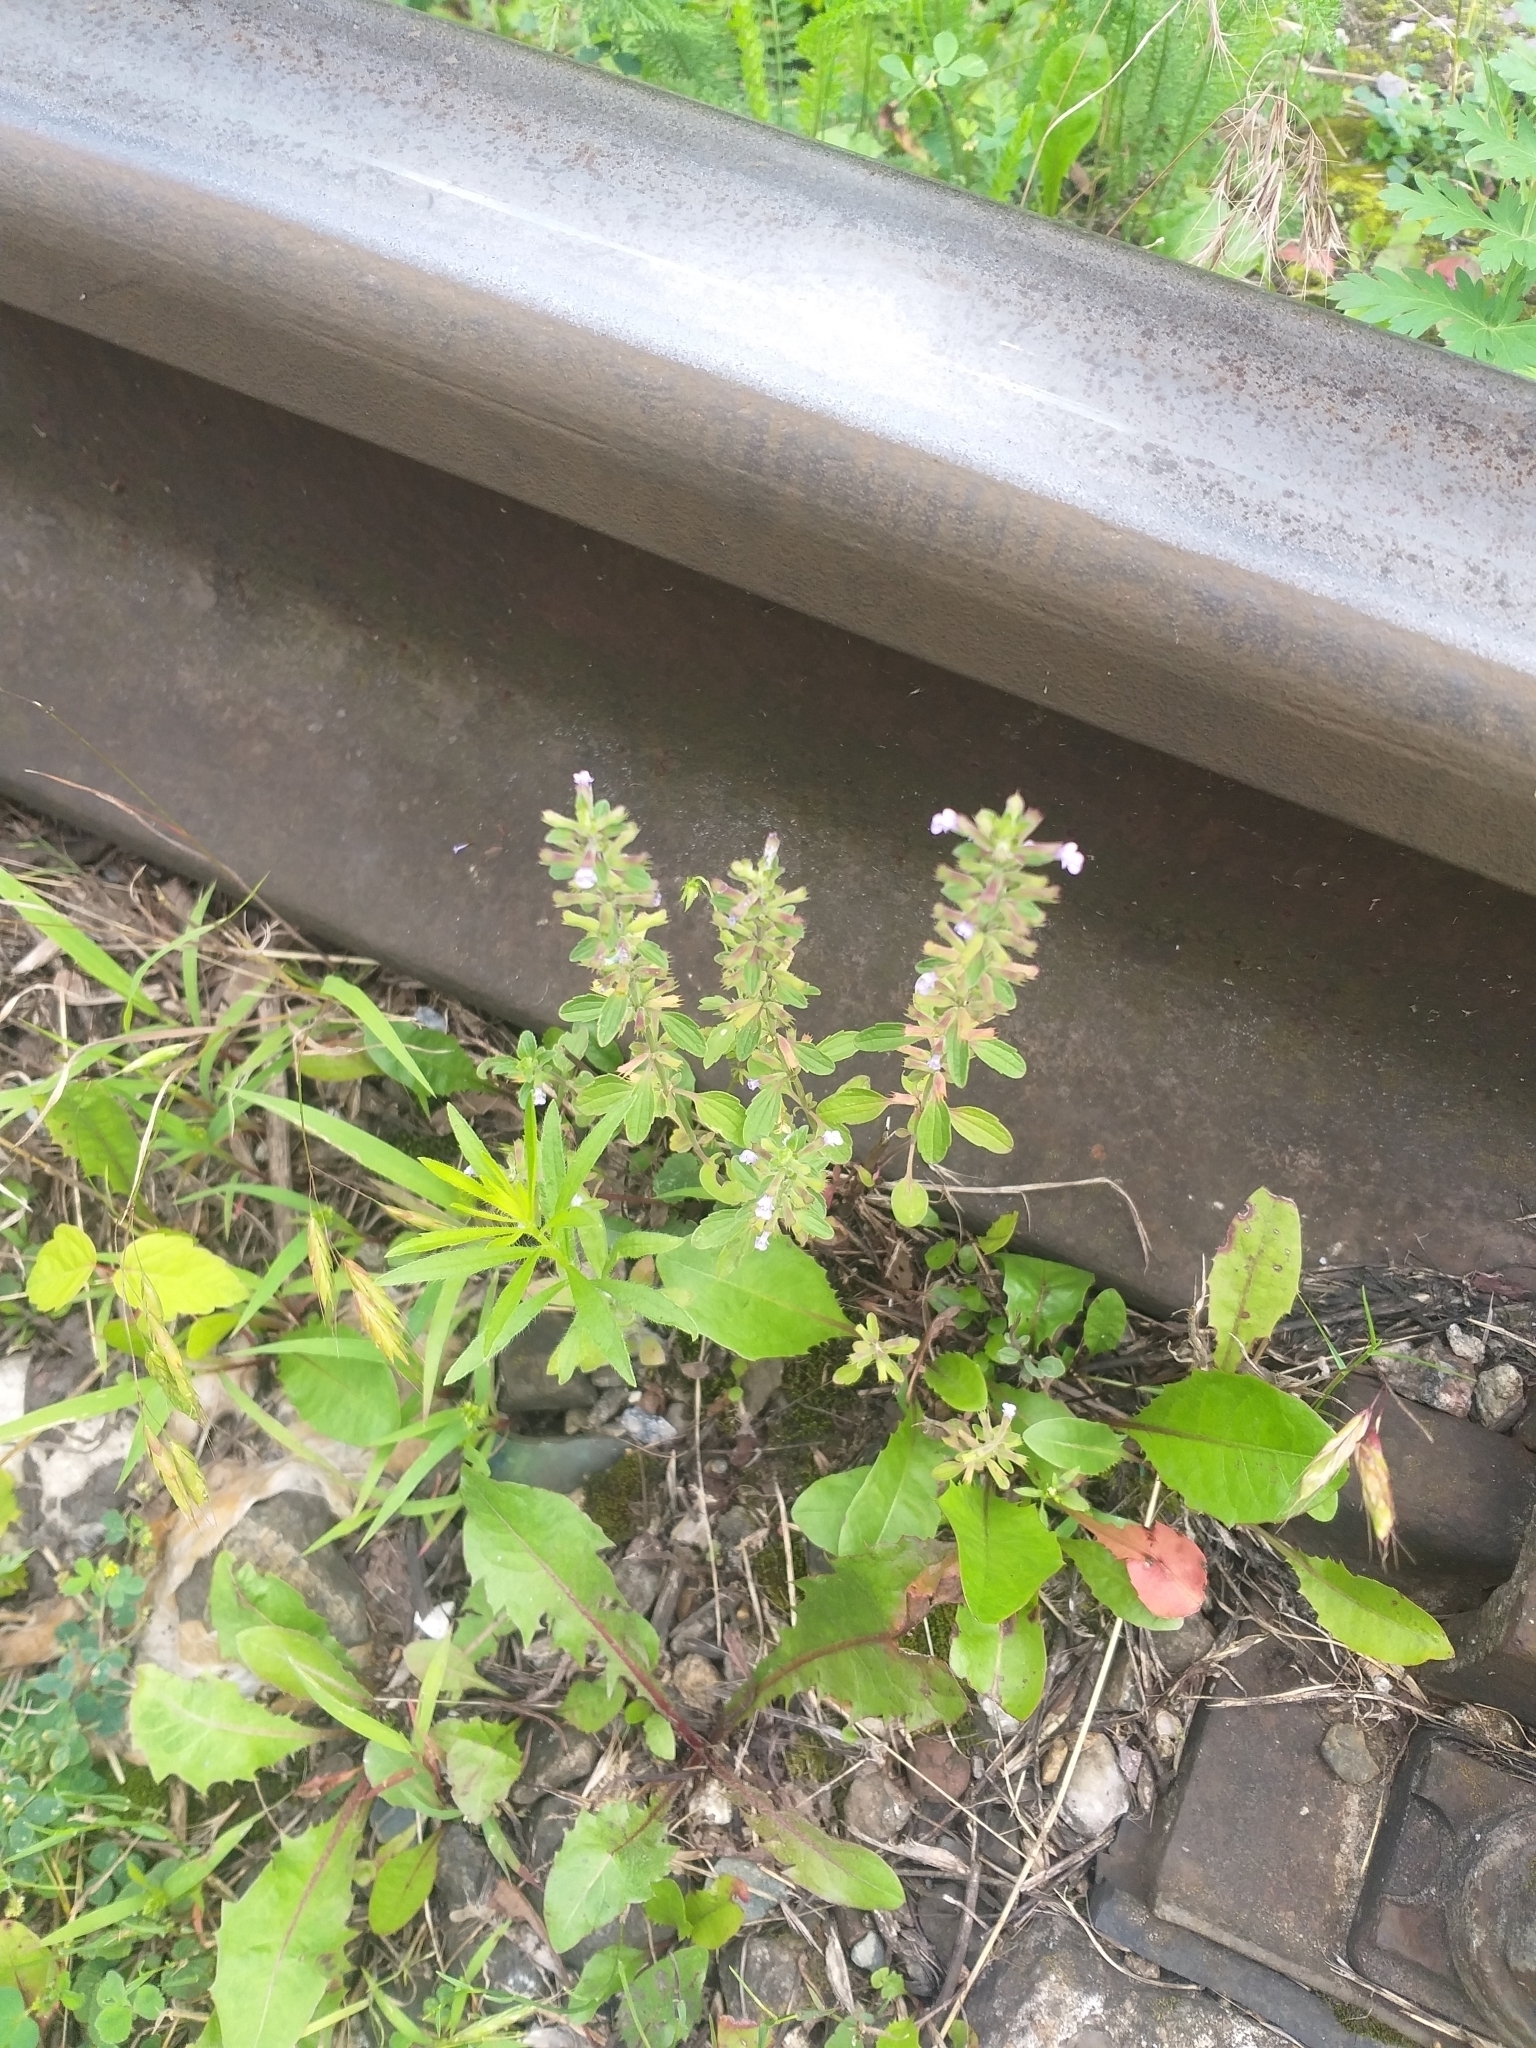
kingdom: Plantae
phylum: Tracheophyta
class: Magnoliopsida
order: Lamiales
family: Lamiaceae
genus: Dracocephalum
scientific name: Dracocephalum thymiflorum
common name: Thymeleaf dragonhead
